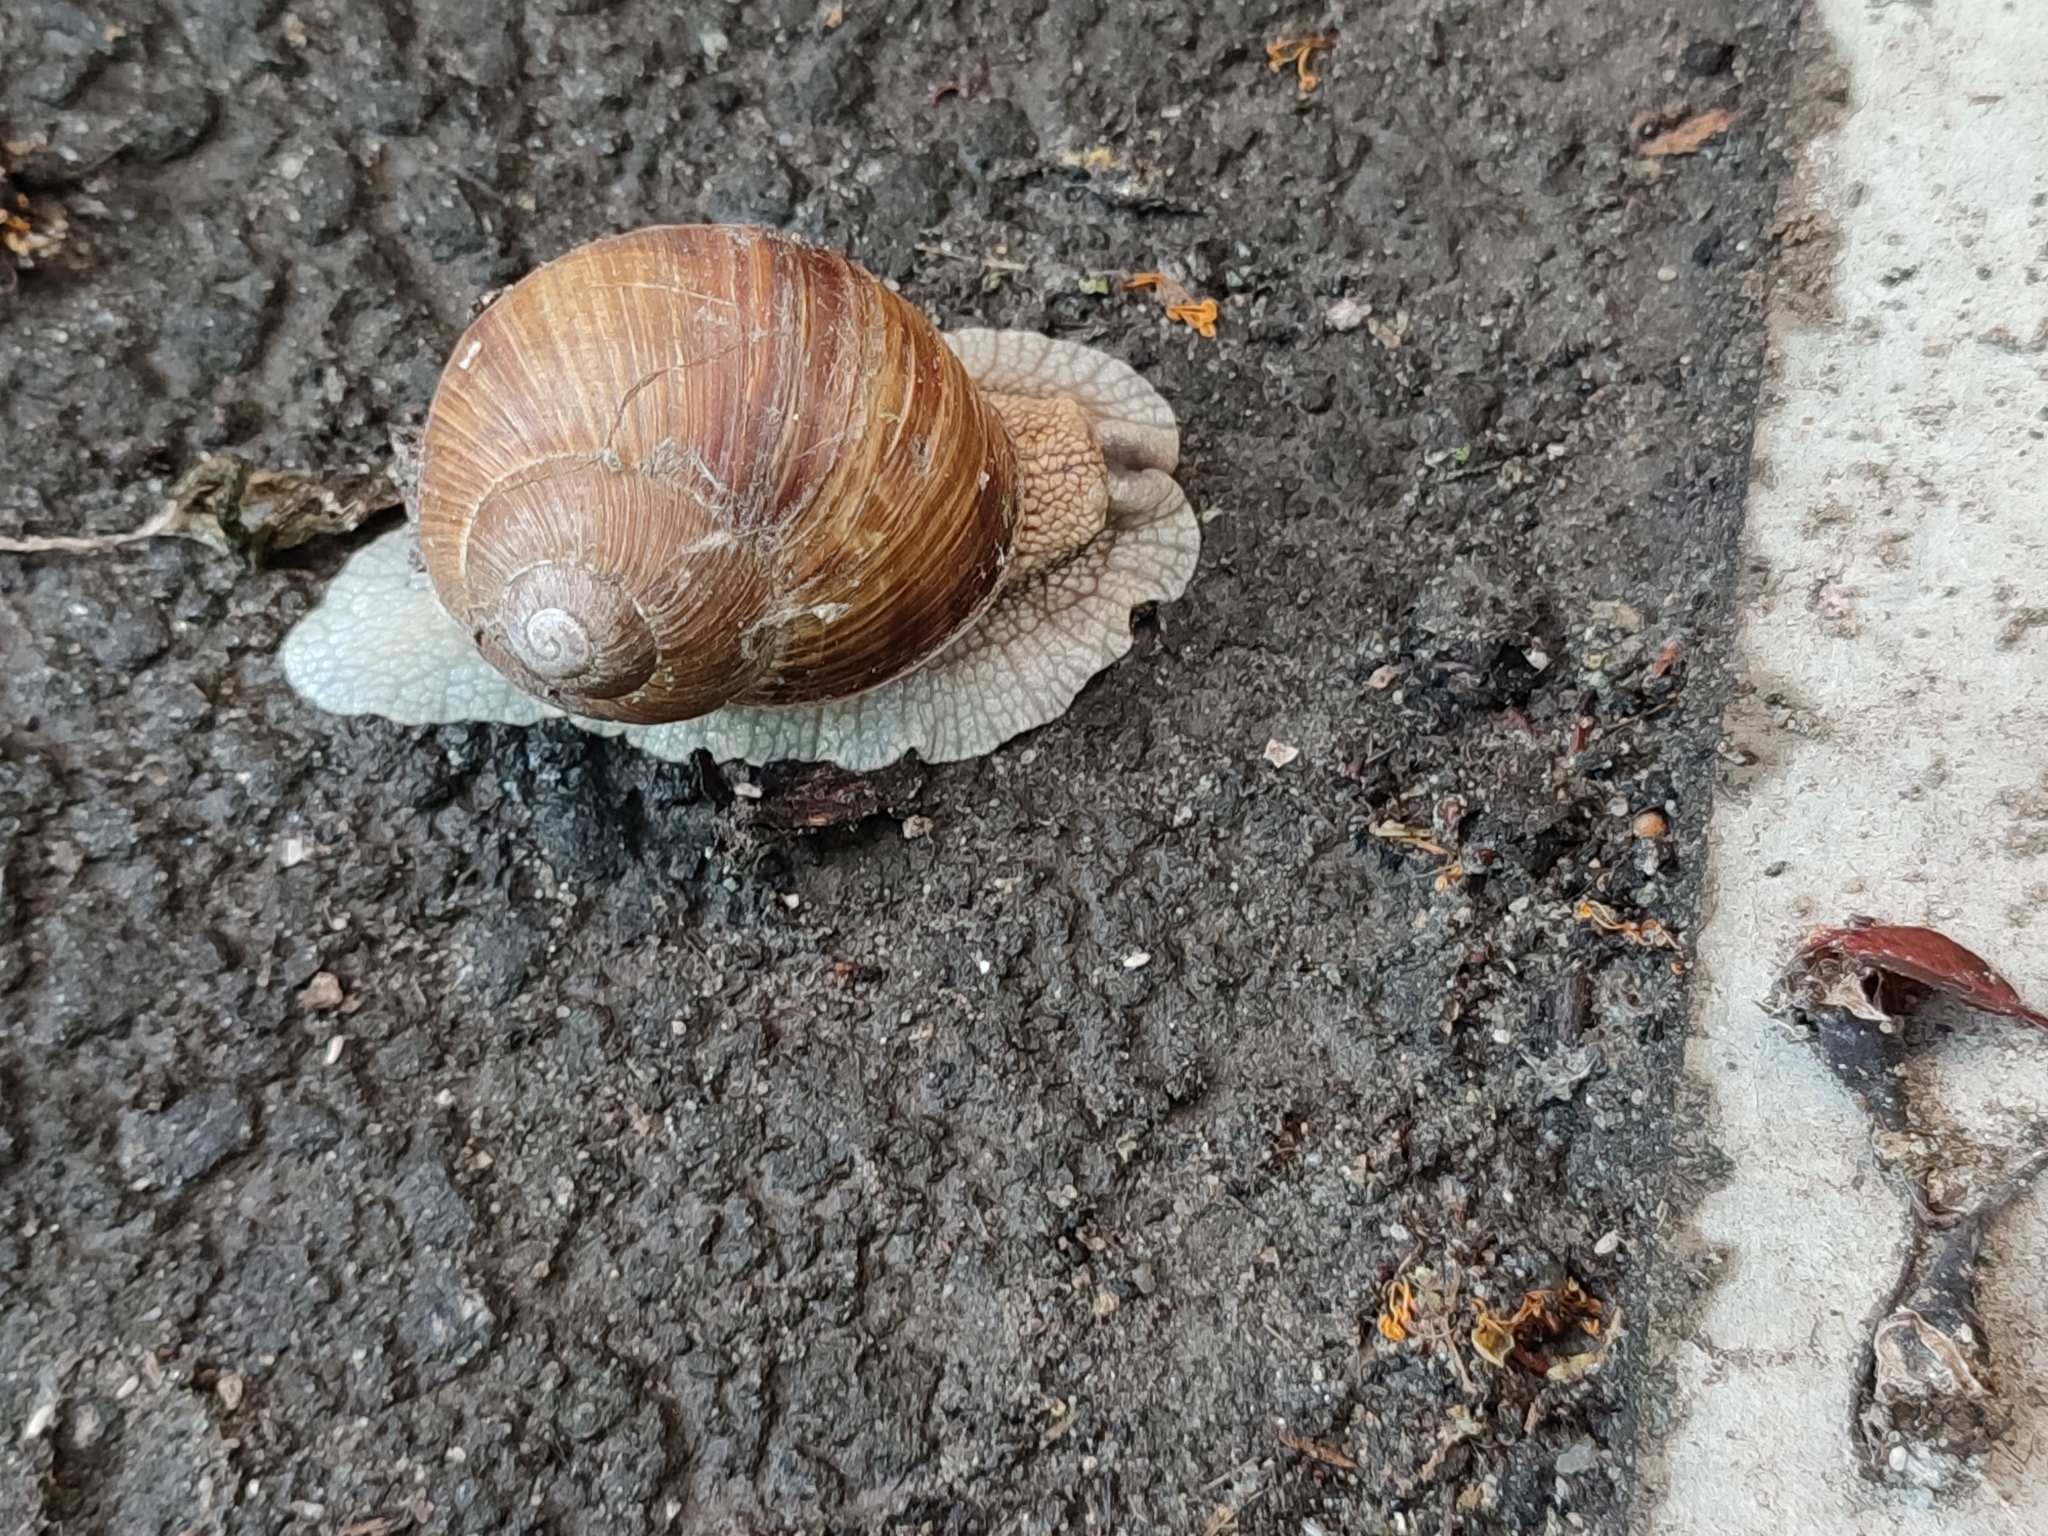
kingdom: Animalia
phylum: Mollusca
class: Gastropoda
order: Stylommatophora
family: Helicidae
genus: Helix
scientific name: Helix pomatia
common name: Roman snail
